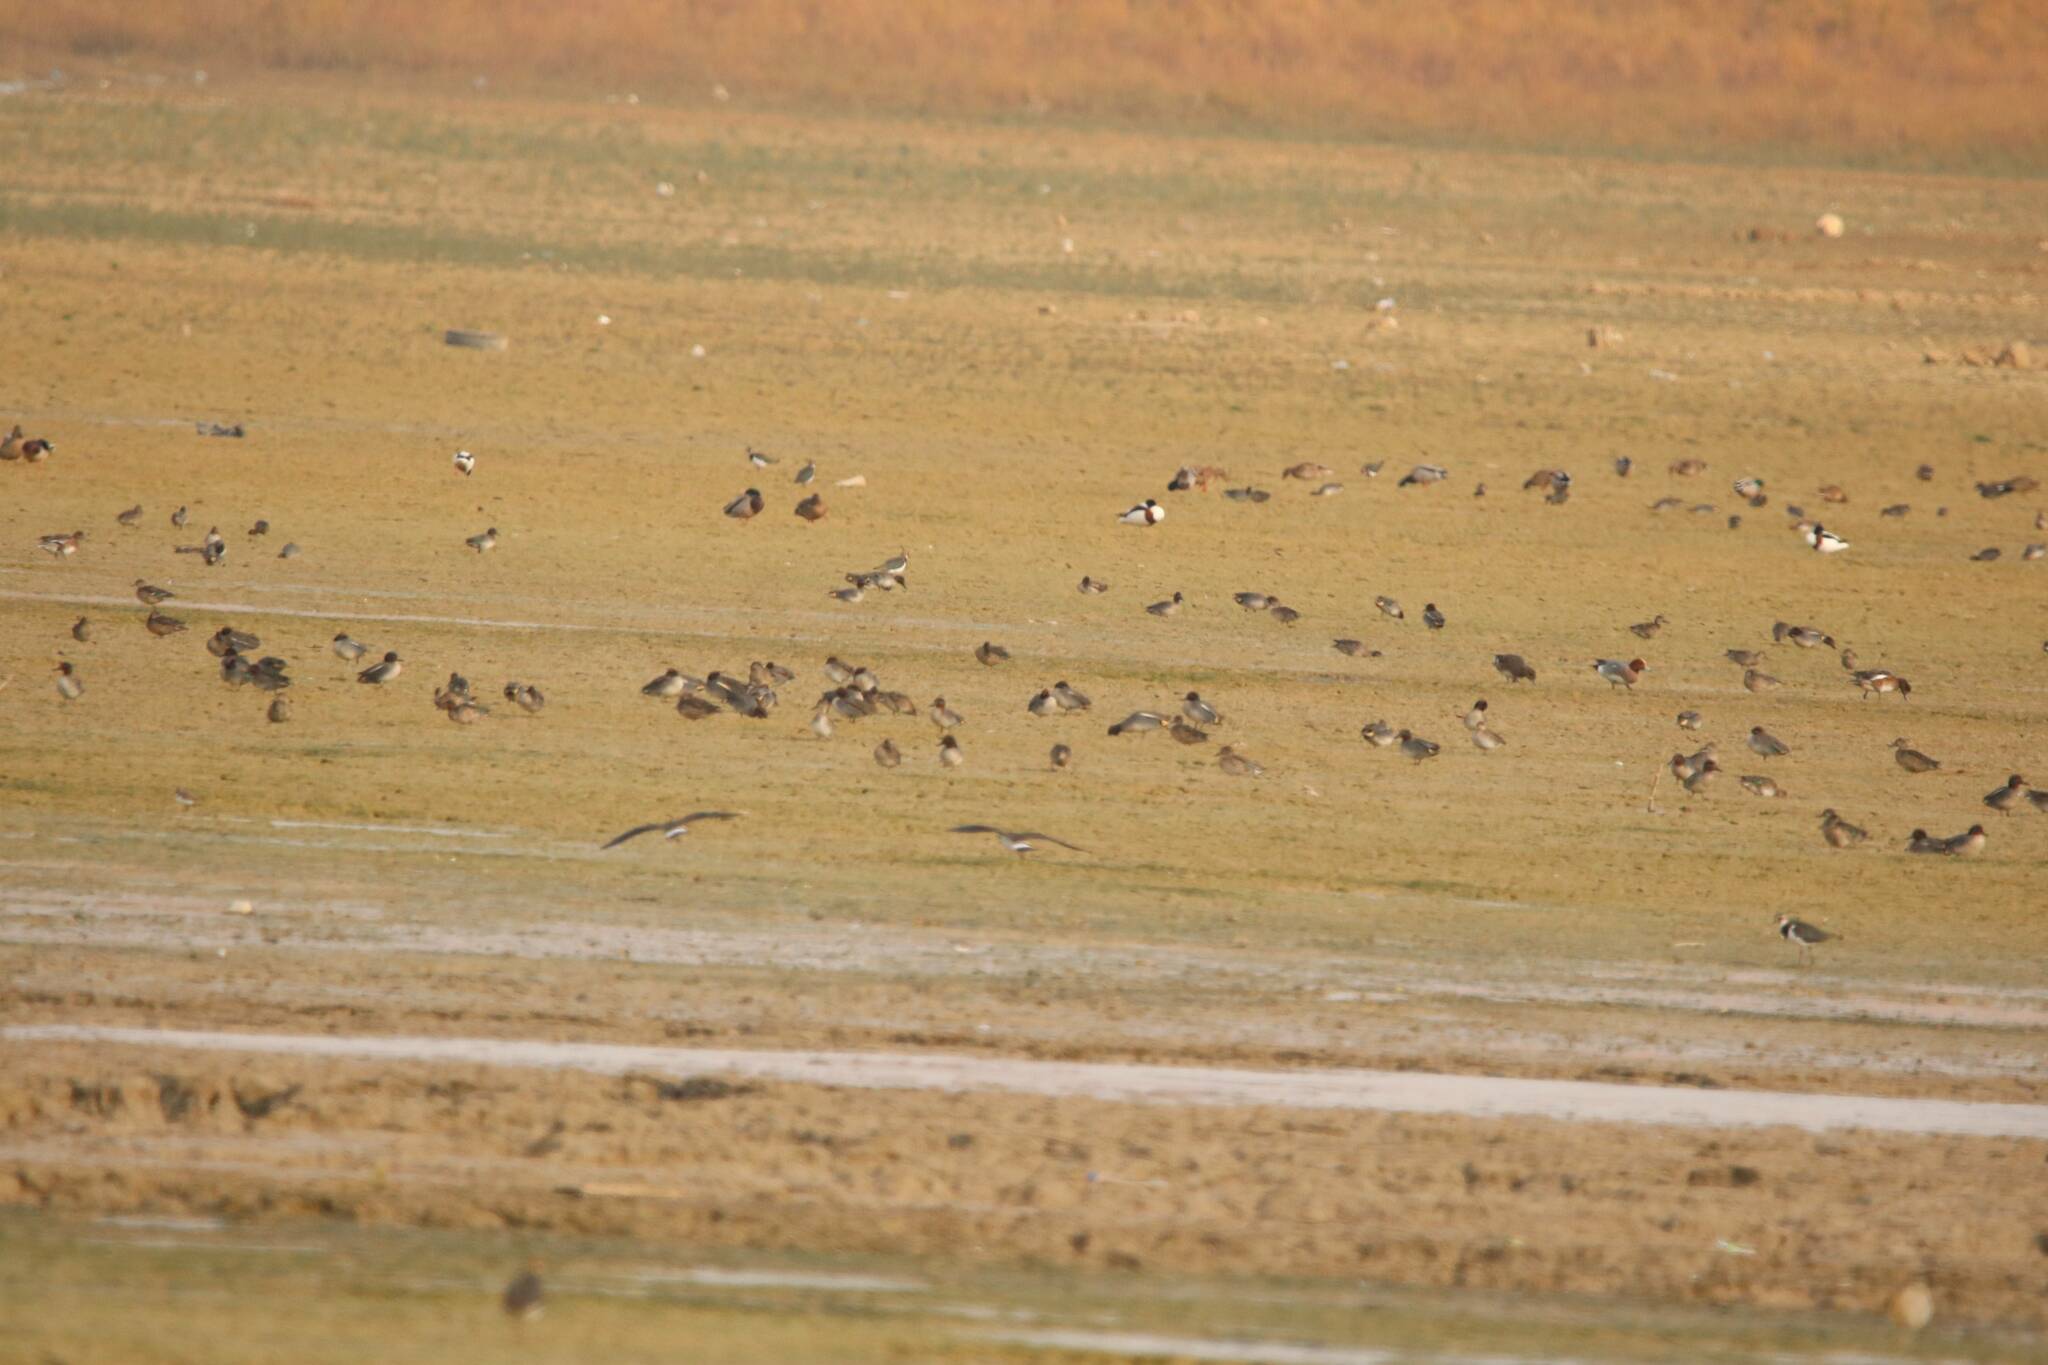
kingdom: Animalia
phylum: Chordata
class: Aves
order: Anseriformes
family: Anatidae
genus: Anas
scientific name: Anas crecca
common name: Eurasian teal
